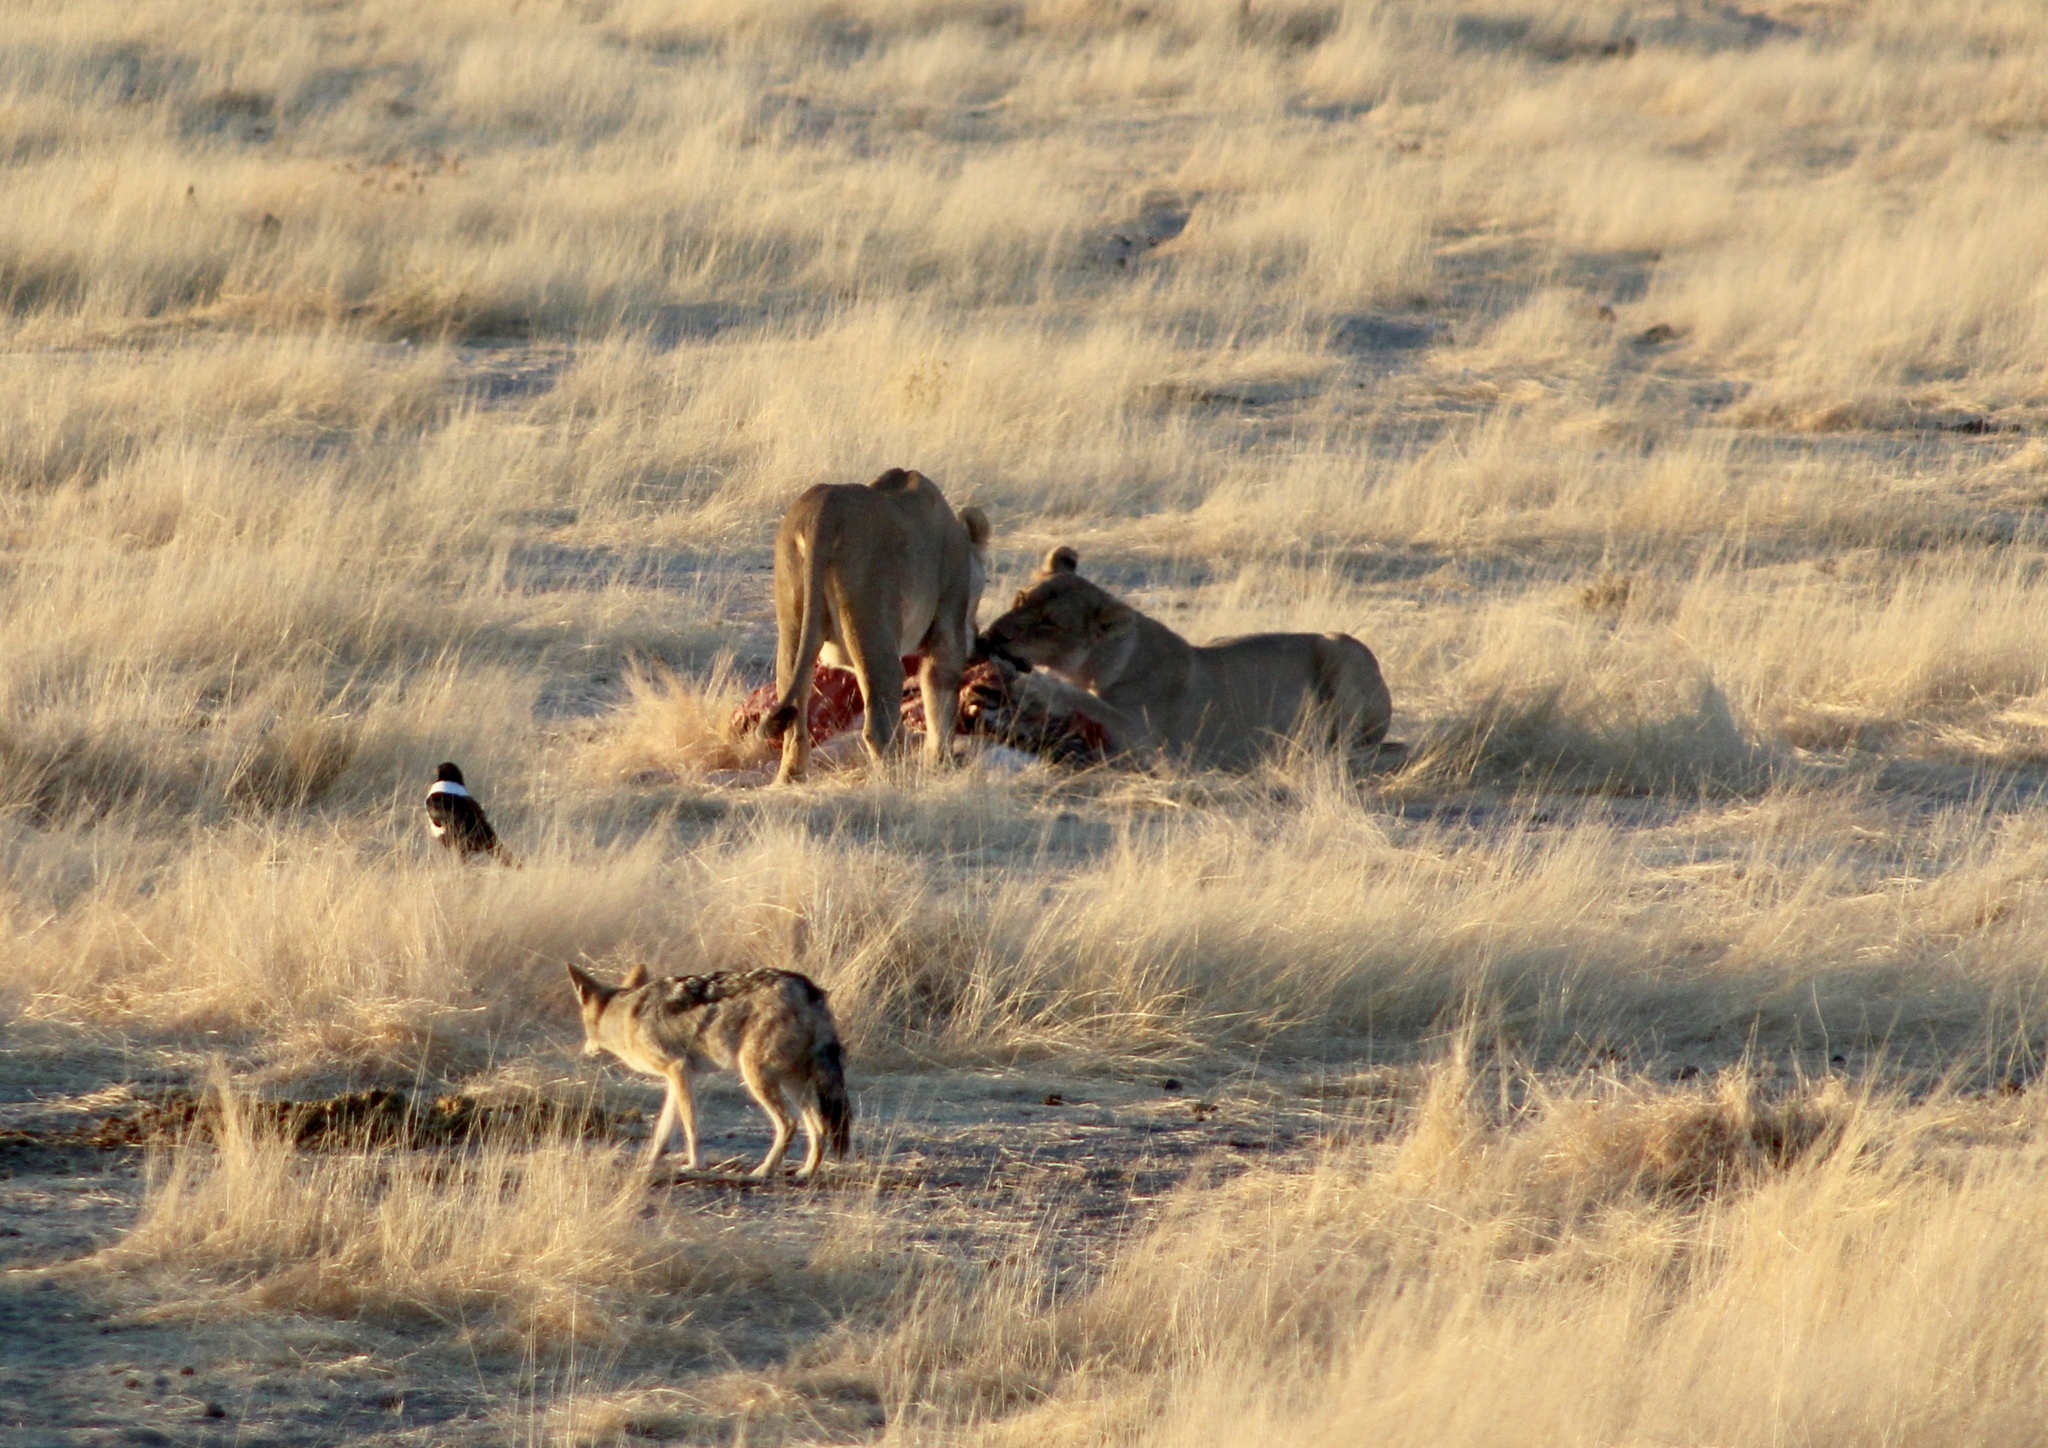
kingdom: Animalia
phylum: Chordata
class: Mammalia
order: Carnivora
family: Felidae
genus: Panthera
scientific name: Panthera leo
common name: Lion
